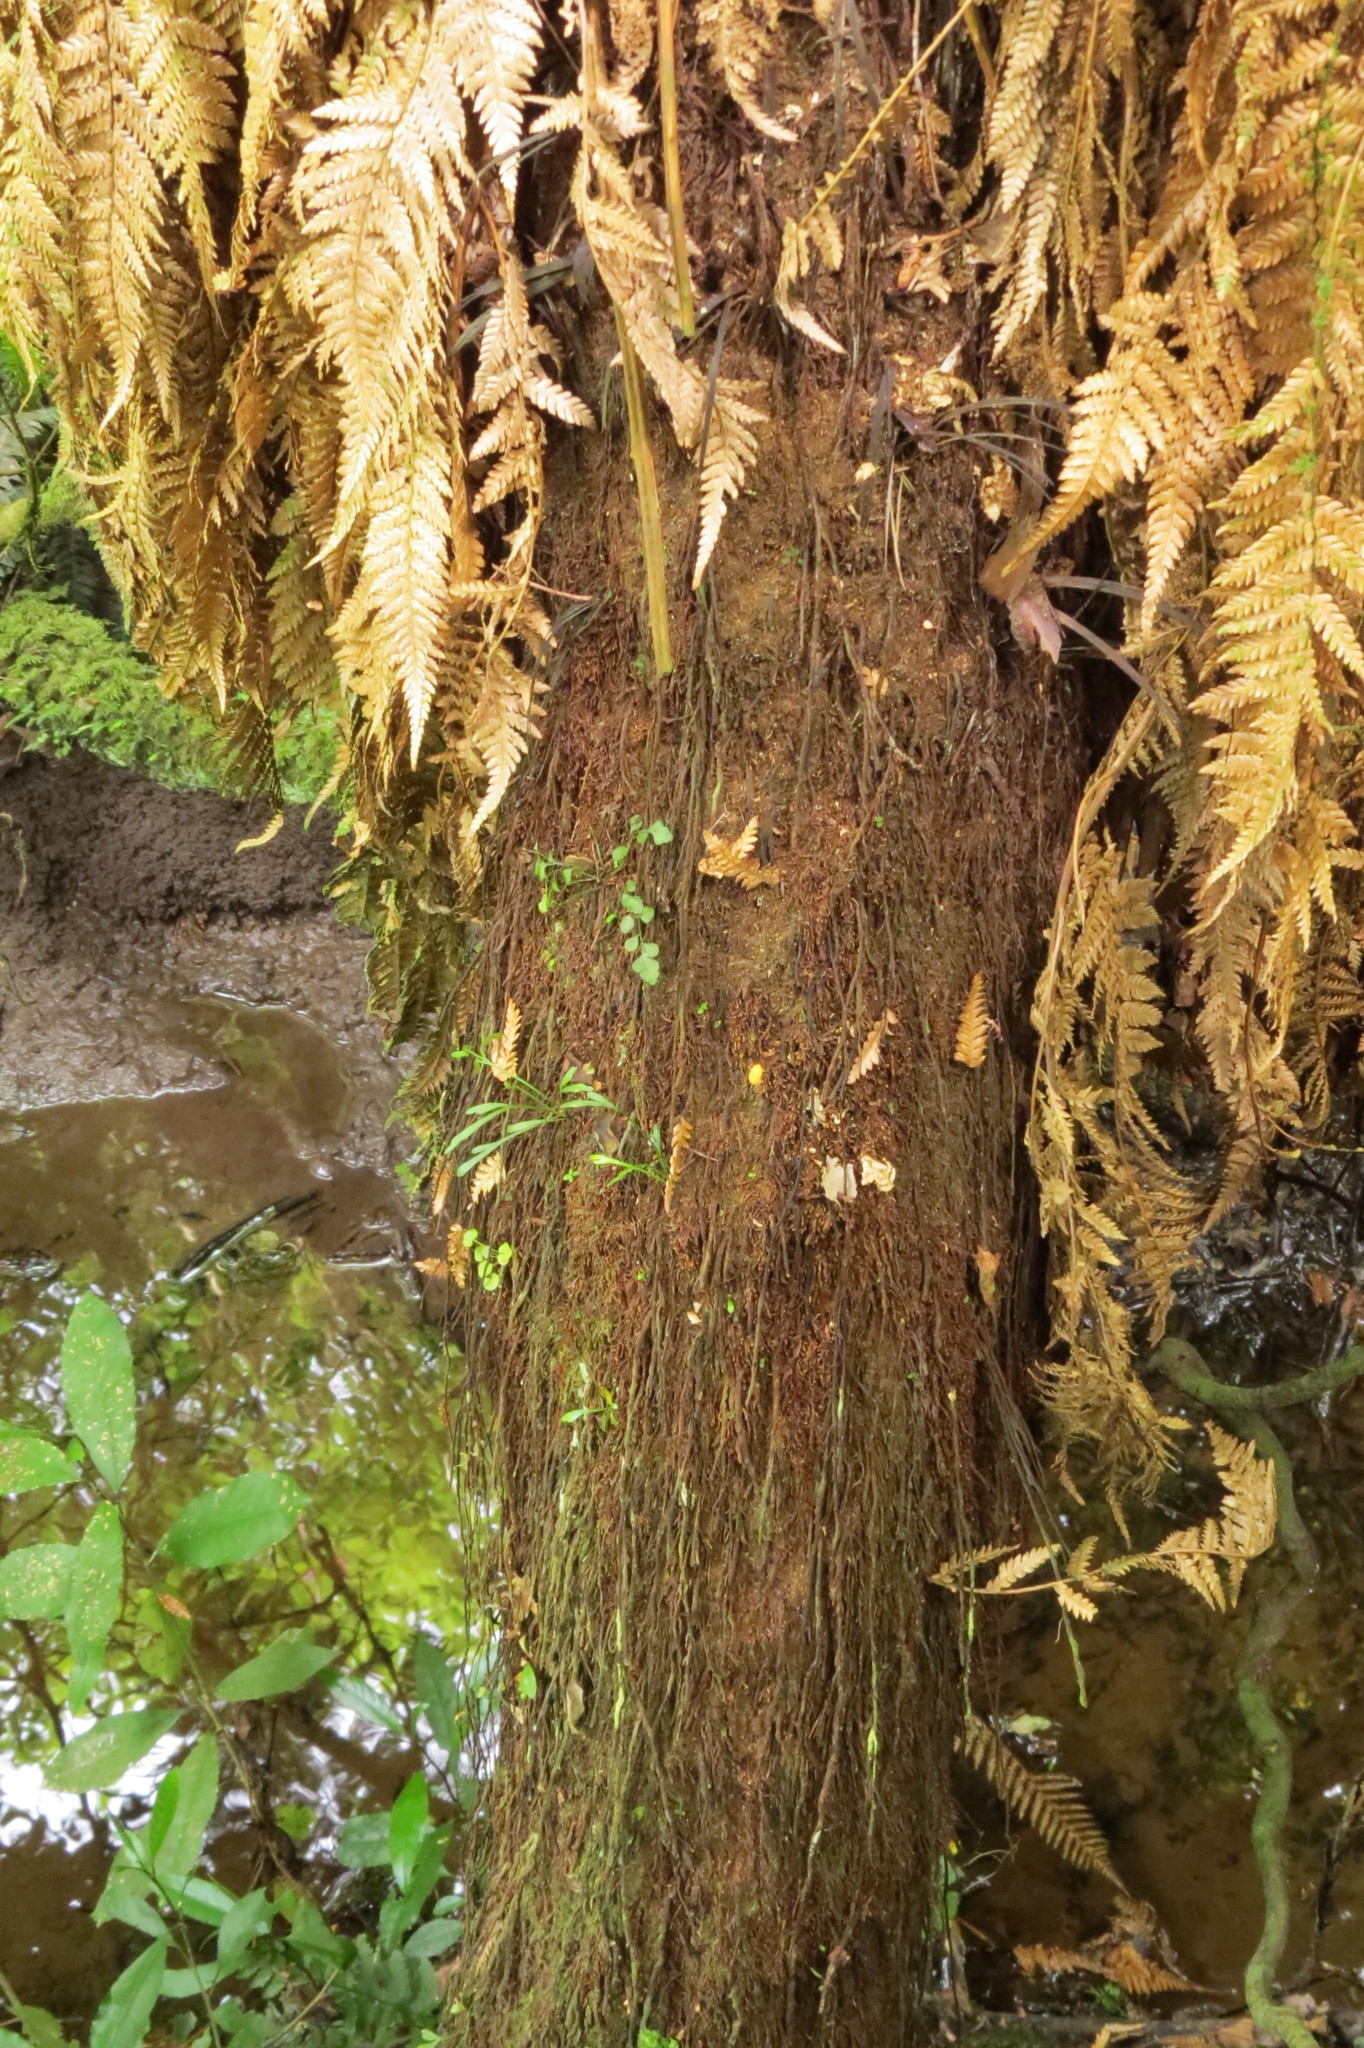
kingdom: Plantae
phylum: Tracheophyta
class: Polypodiopsida
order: Cyatheales
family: Dicksoniaceae
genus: Dicksonia
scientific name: Dicksonia fibrosa
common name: Golden tree fern
